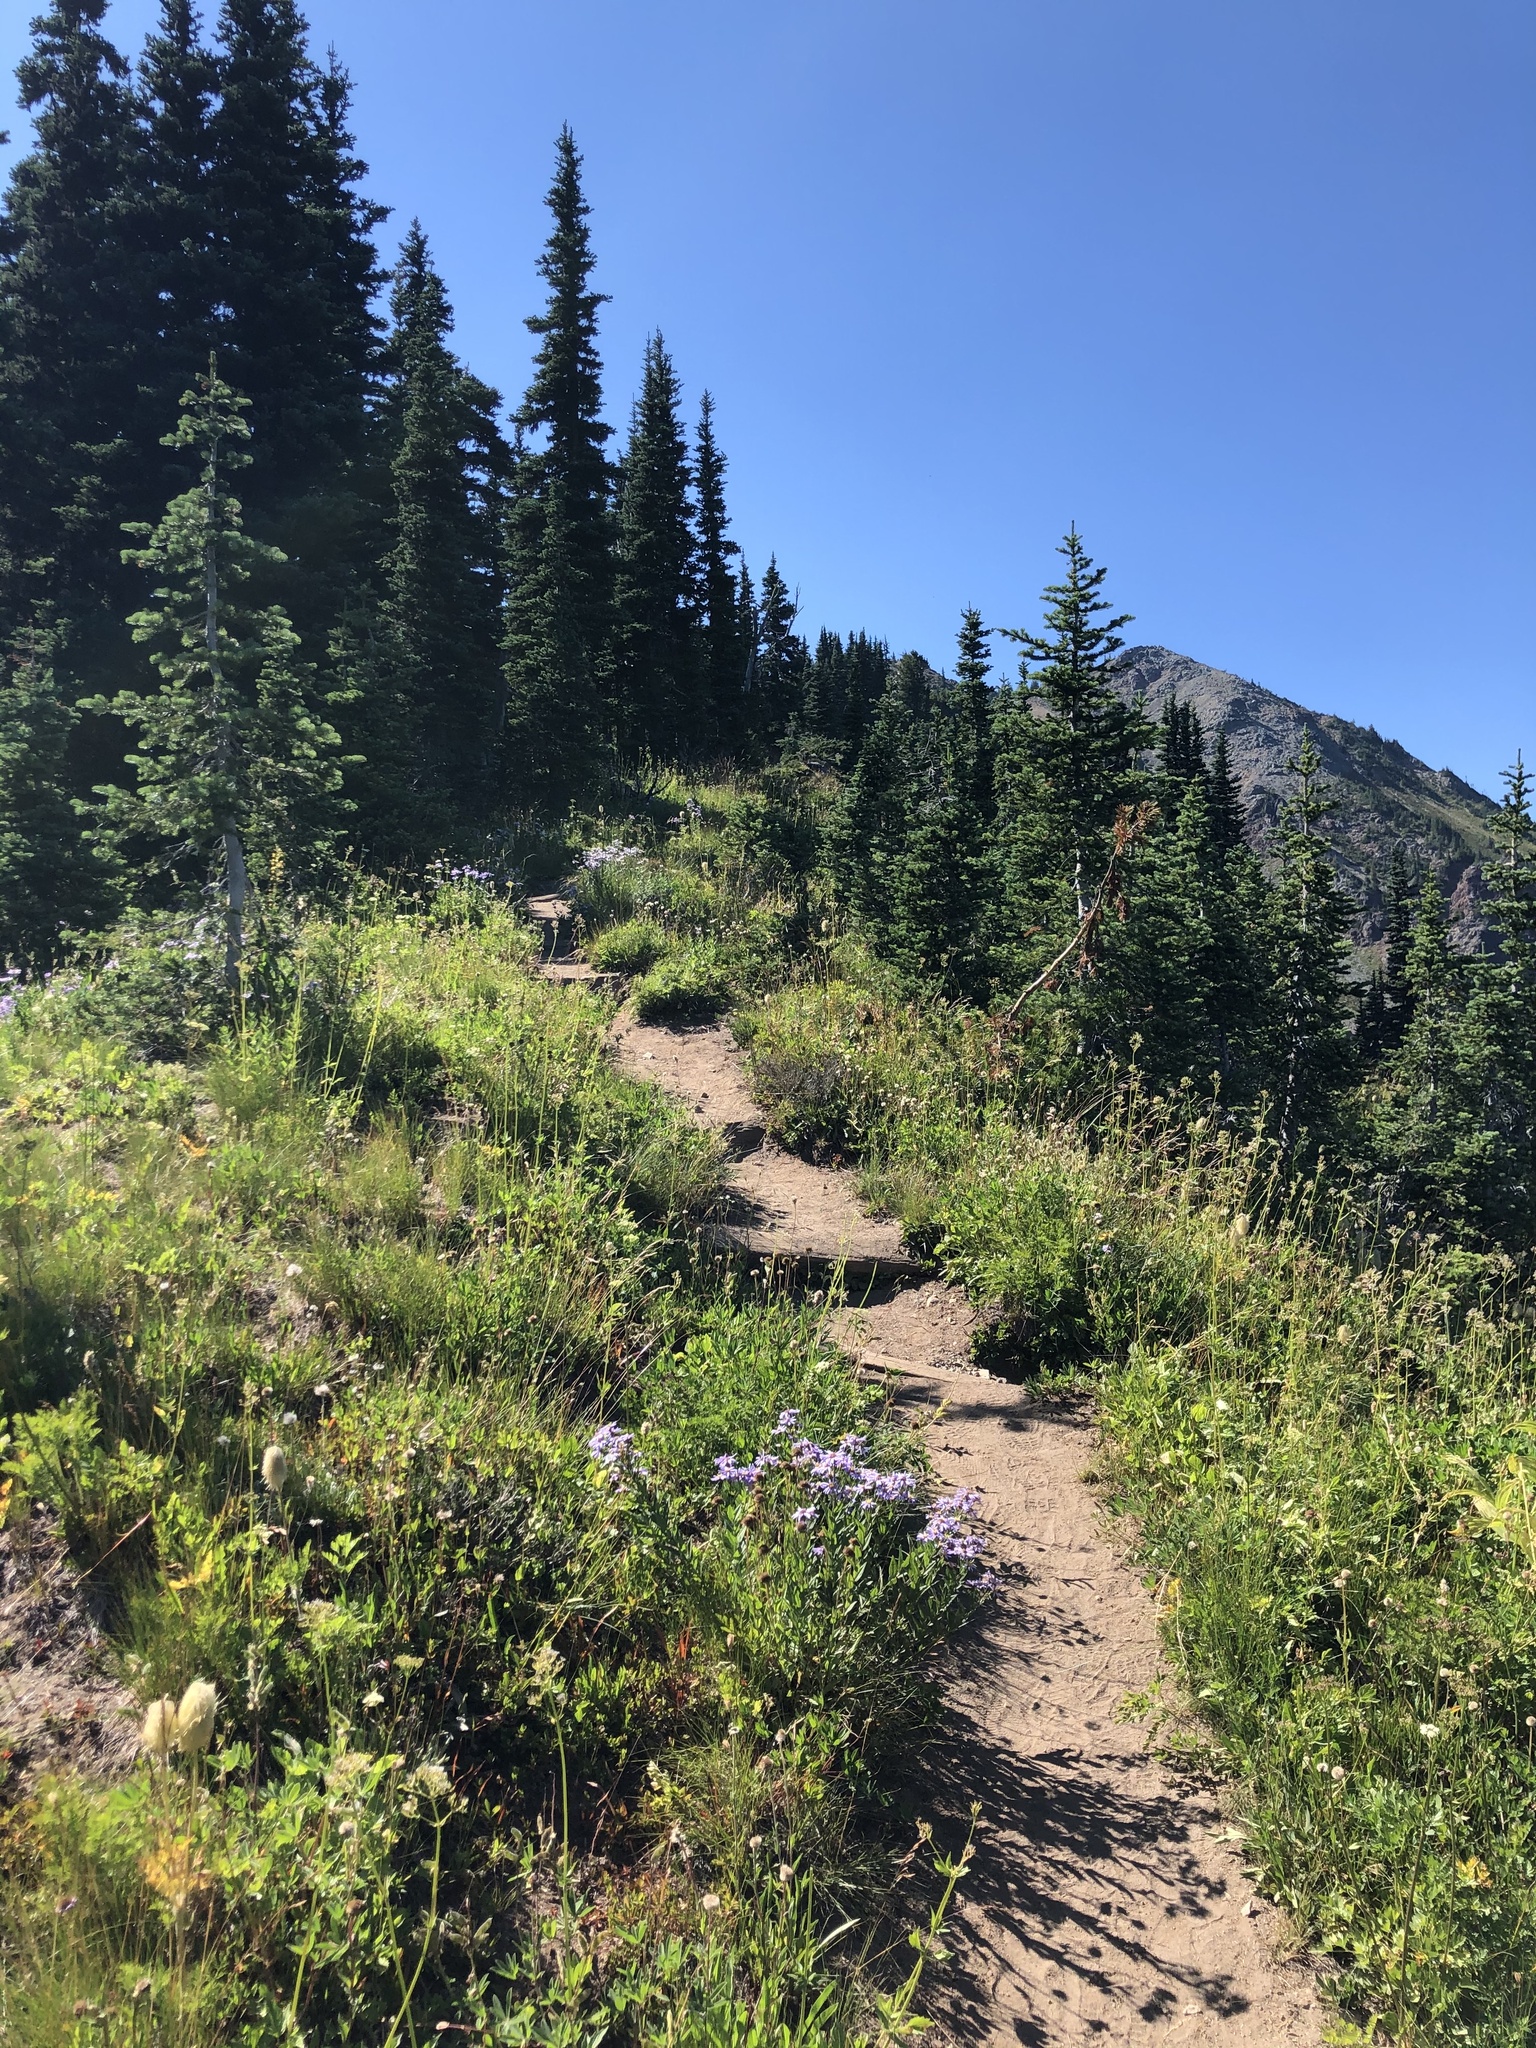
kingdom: Plantae
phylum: Tracheophyta
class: Pinopsida
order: Pinales
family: Pinaceae
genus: Abies
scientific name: Abies lasiocarpa
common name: Subalpine fir
